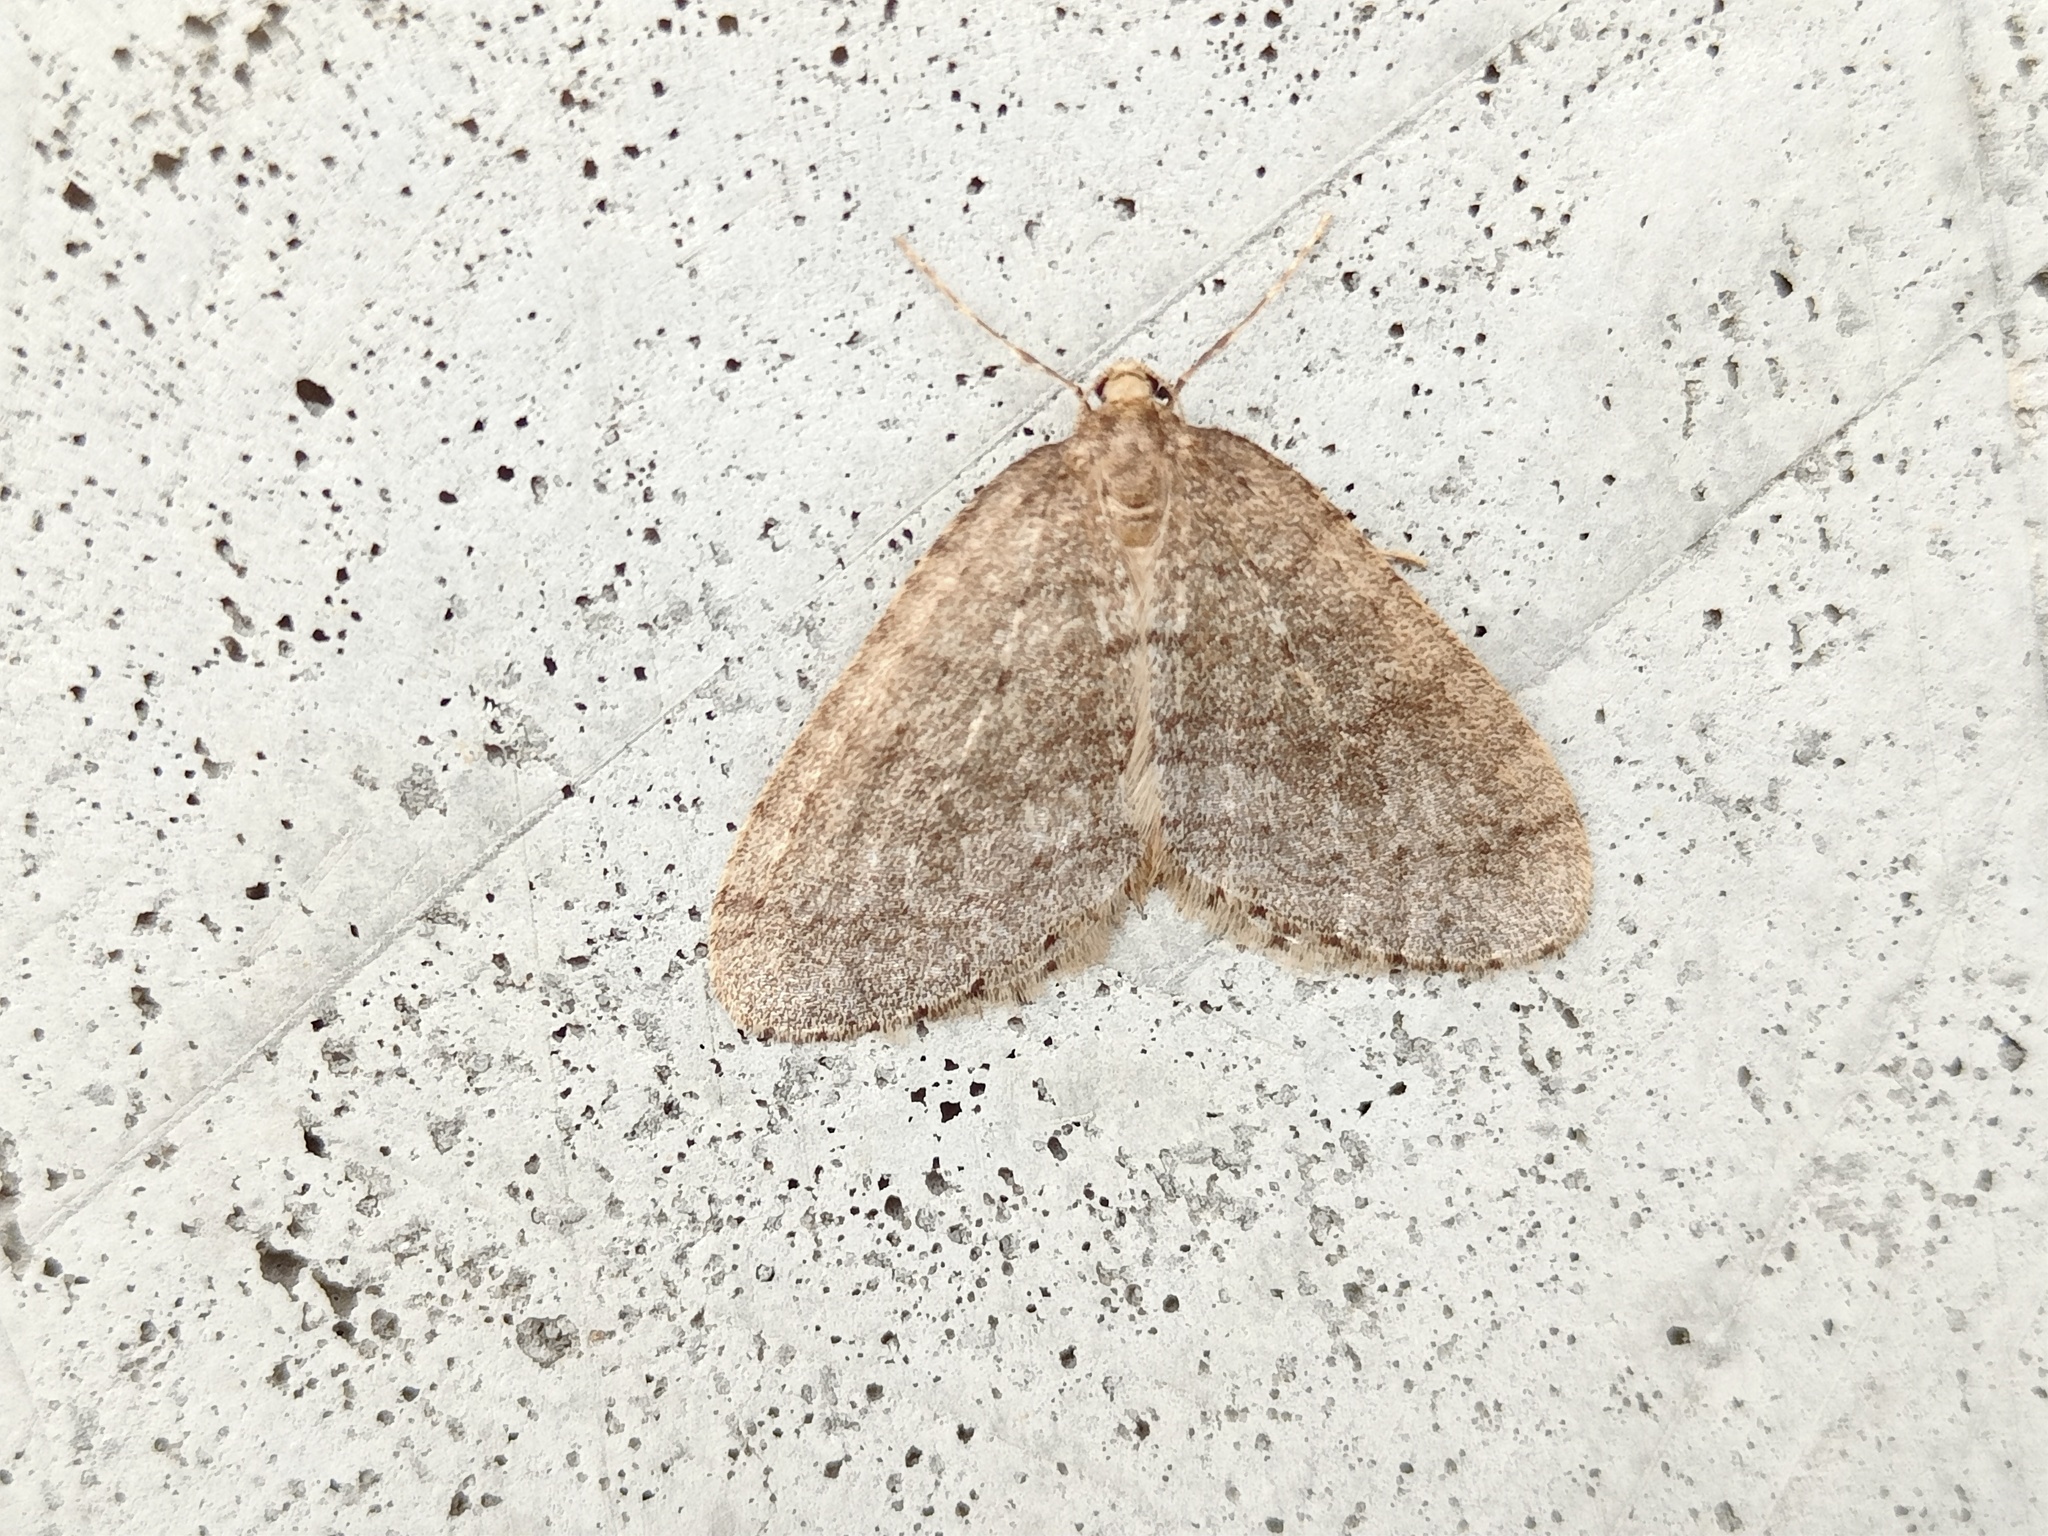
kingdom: Animalia
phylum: Arthropoda
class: Insecta
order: Lepidoptera
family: Geometridae
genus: Operophtera
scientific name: Operophtera brumata
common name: Winter moth
